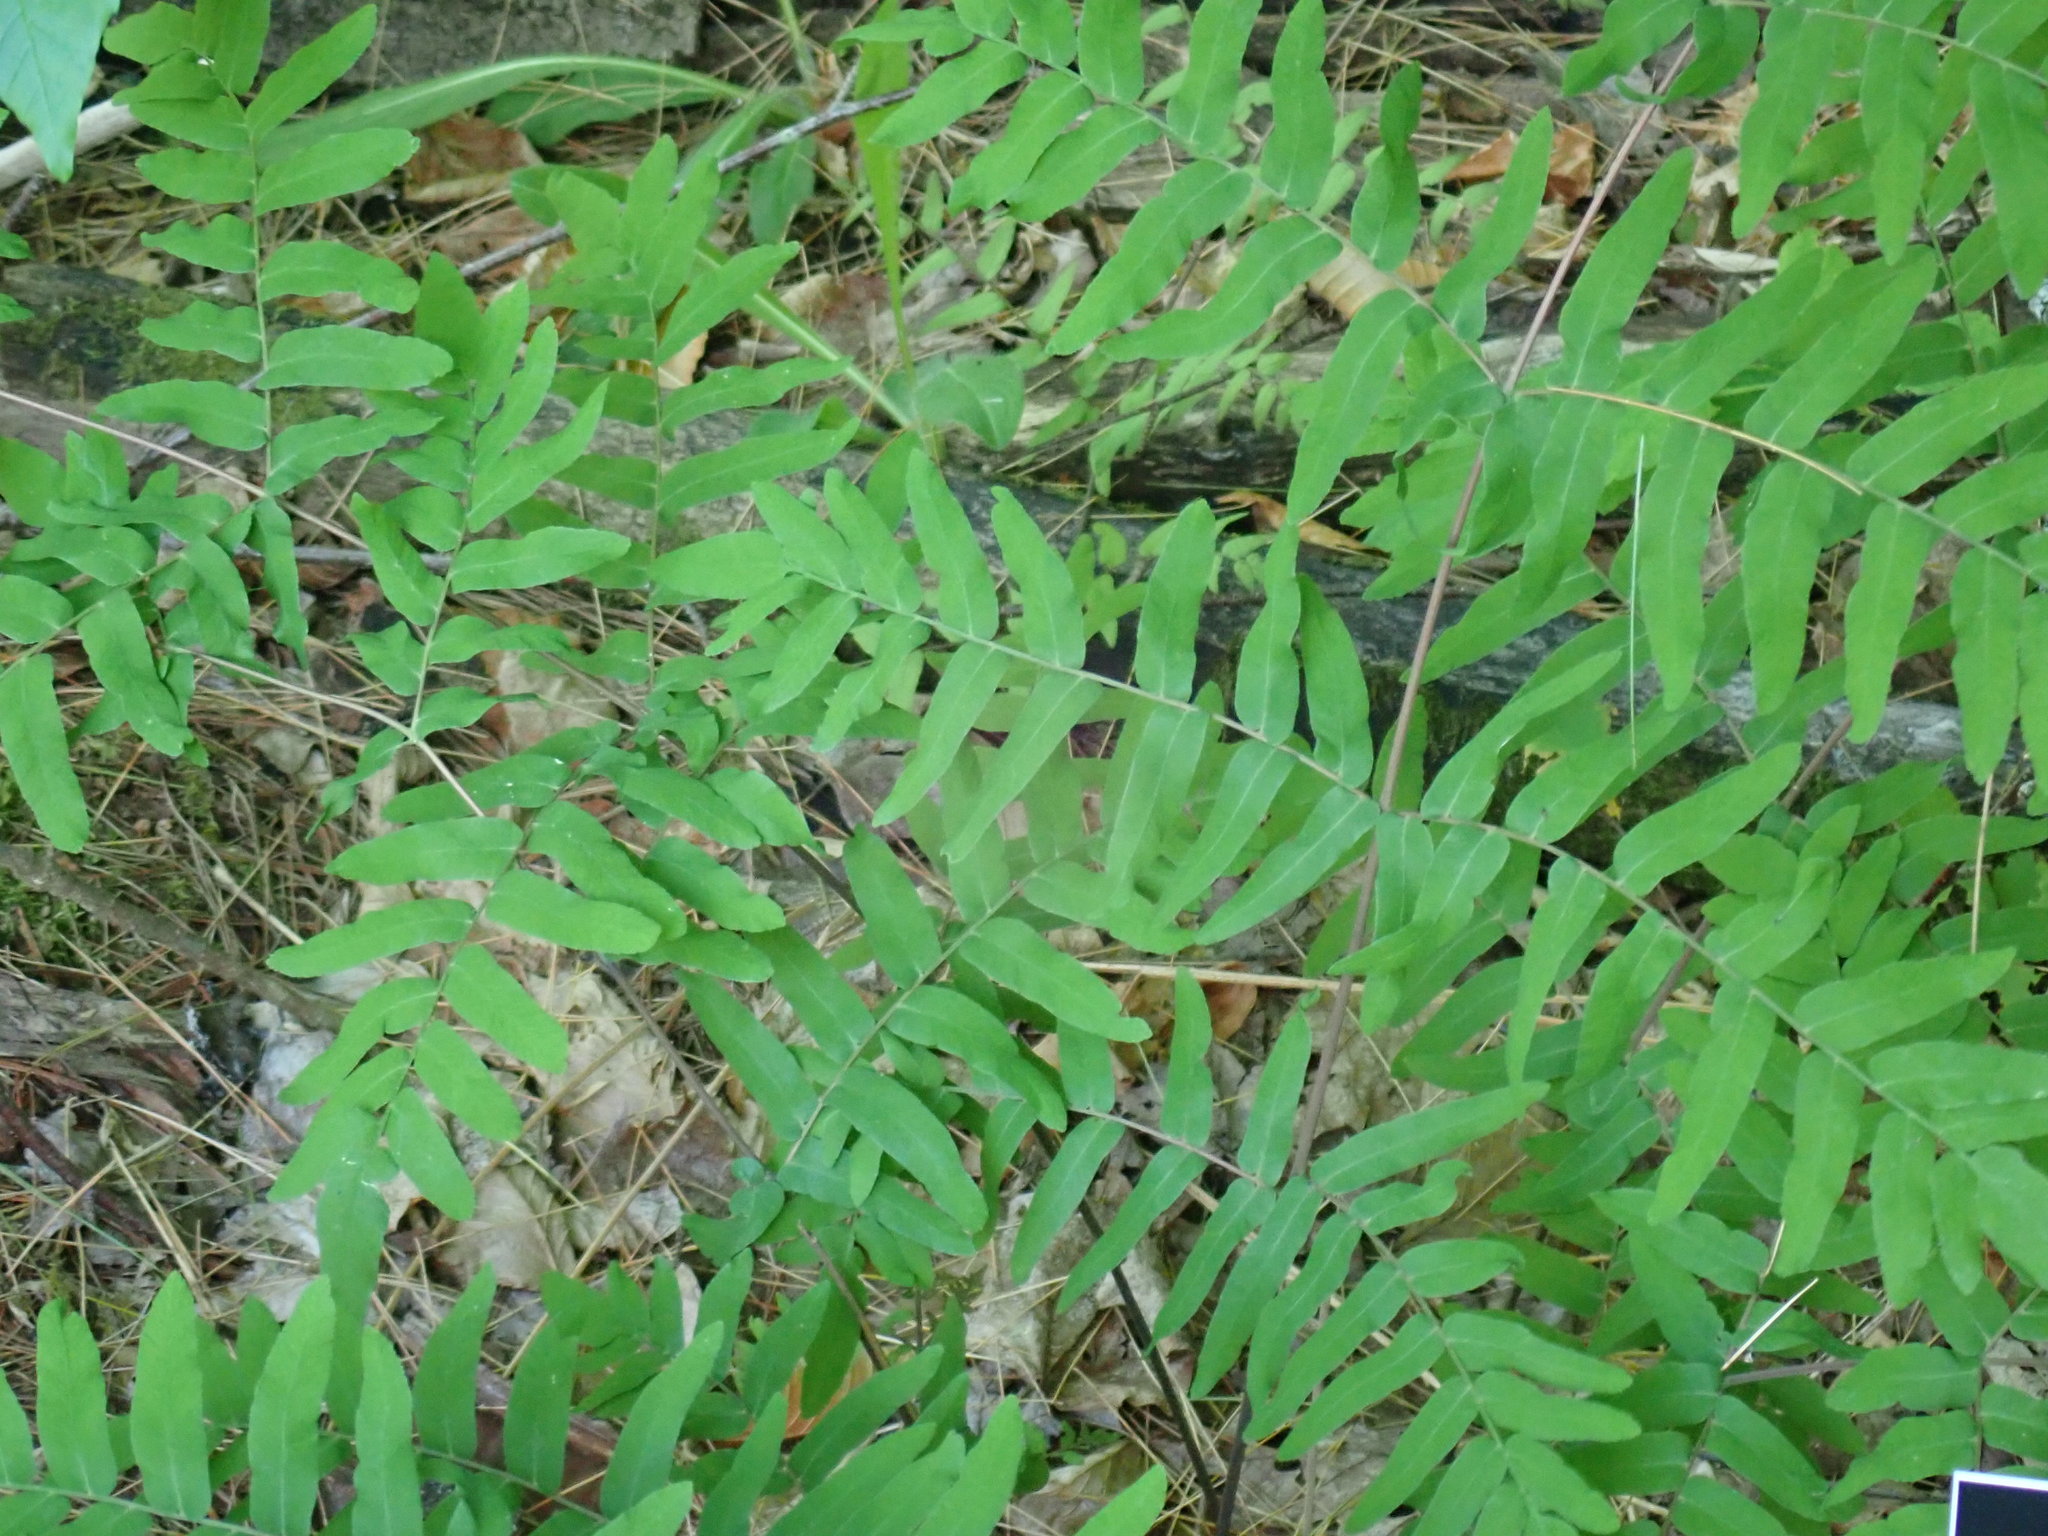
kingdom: Plantae
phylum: Tracheophyta
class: Polypodiopsida
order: Osmundales
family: Osmundaceae
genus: Osmunda
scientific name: Osmunda spectabilis
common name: American royal fern
